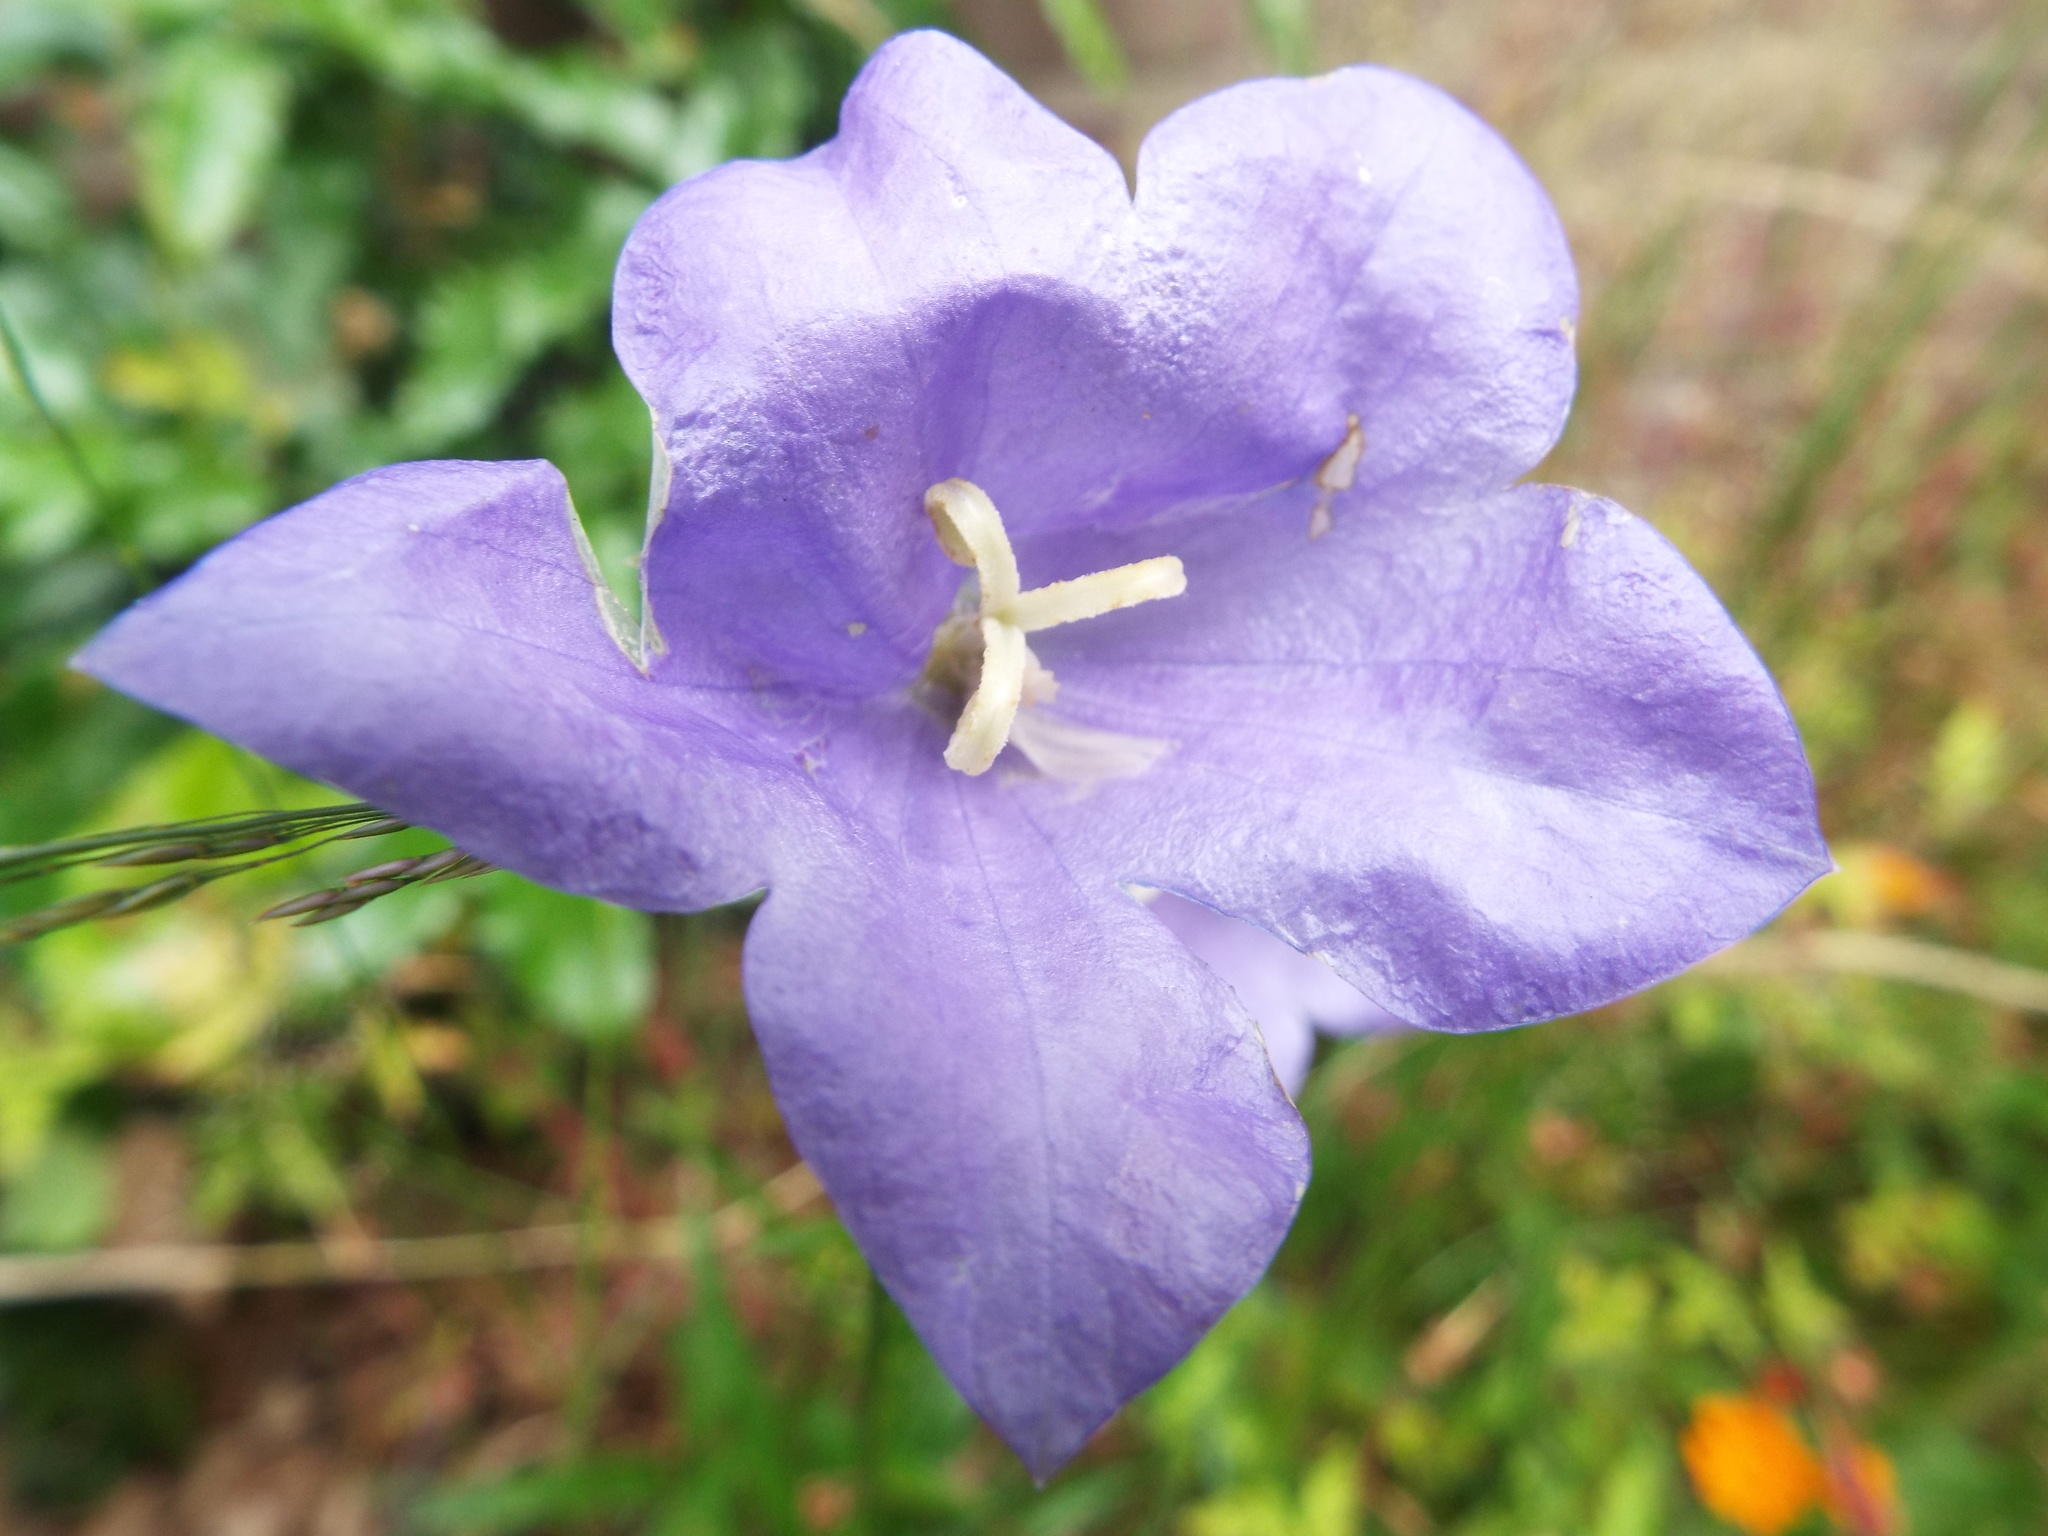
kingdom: Plantae
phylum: Tracheophyta
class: Magnoliopsida
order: Asterales
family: Campanulaceae
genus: Campanula
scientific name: Campanula persicifolia
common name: Peach-leaved bellflower
